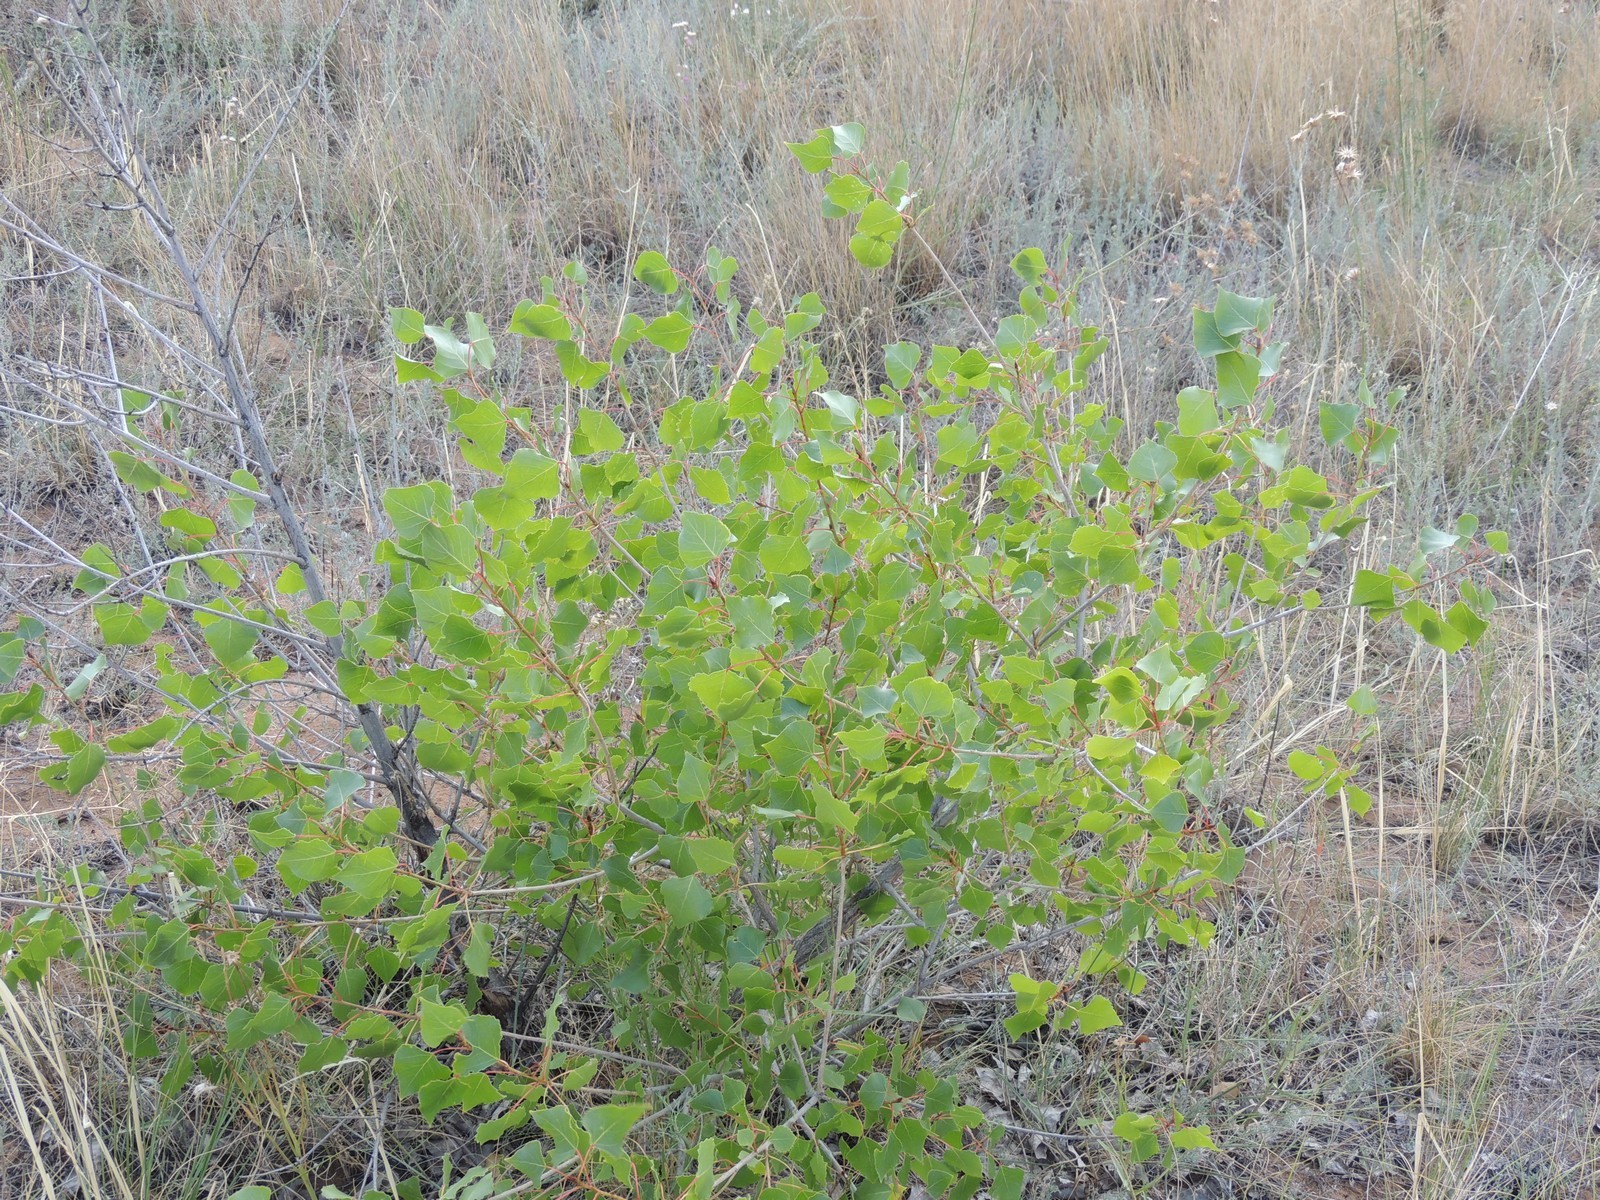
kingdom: Plantae
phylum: Tracheophyta
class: Magnoliopsida
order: Malpighiales
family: Salicaceae
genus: Populus
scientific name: Populus nigra
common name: Black poplar
